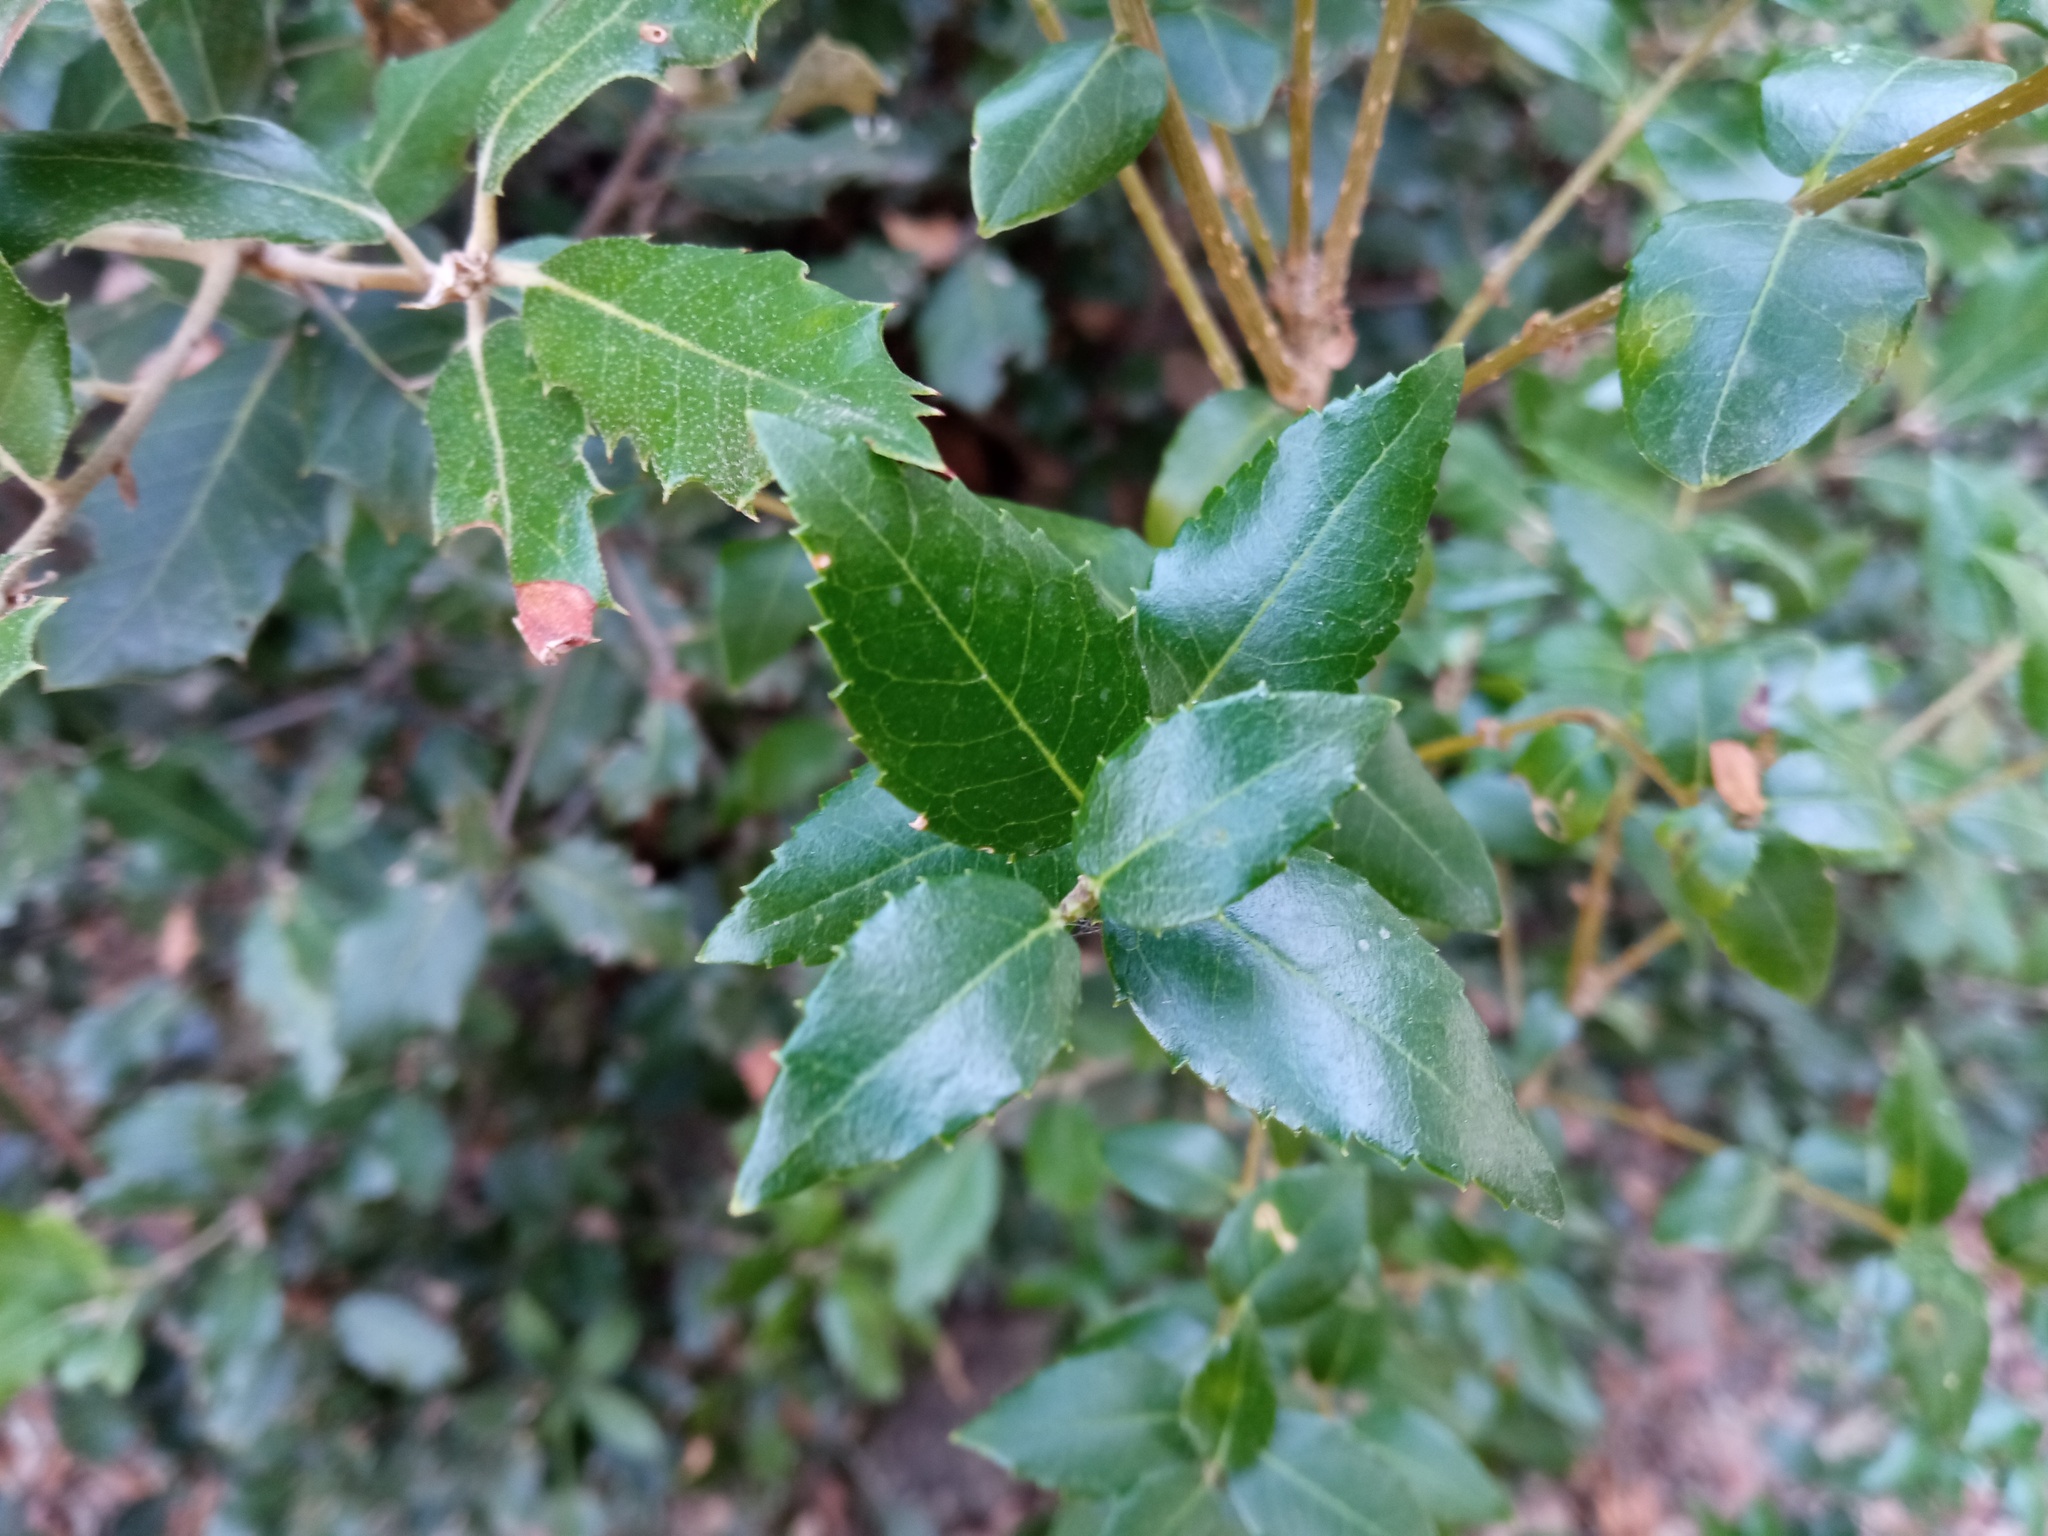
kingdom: Plantae
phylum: Tracheophyta
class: Magnoliopsida
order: Lamiales
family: Oleaceae
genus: Phillyrea
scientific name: Phillyrea latifolia
